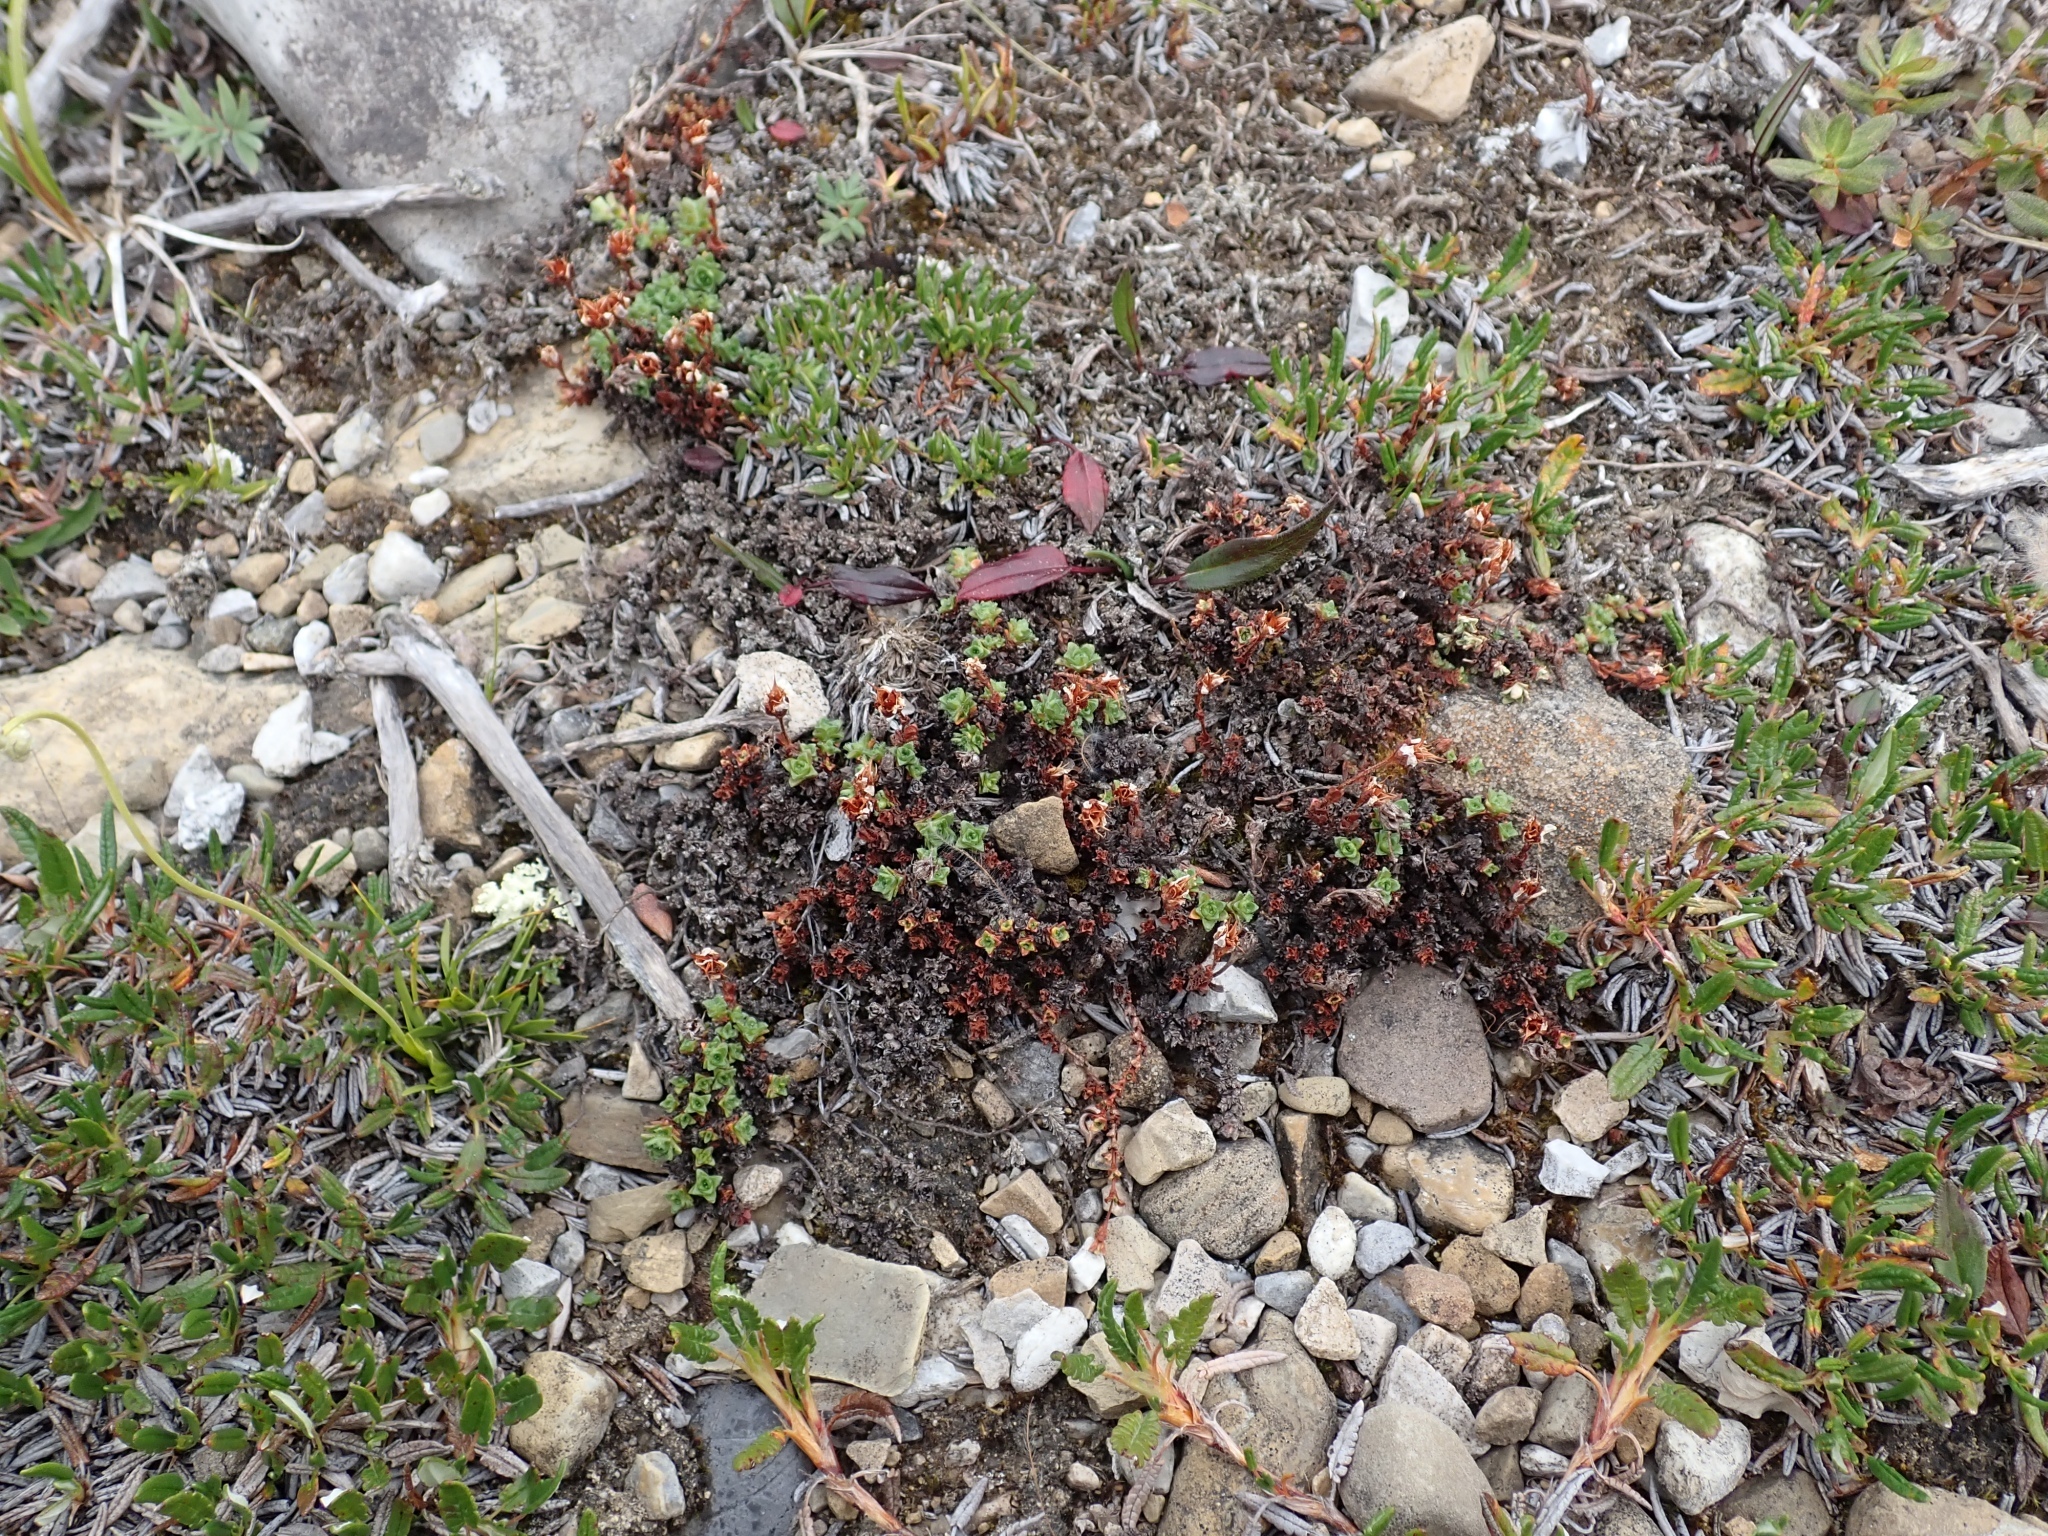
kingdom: Plantae
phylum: Tracheophyta
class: Magnoliopsida
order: Saxifragales
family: Saxifragaceae
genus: Saxifraga
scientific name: Saxifraga oppositifolia
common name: Purple saxifrage
